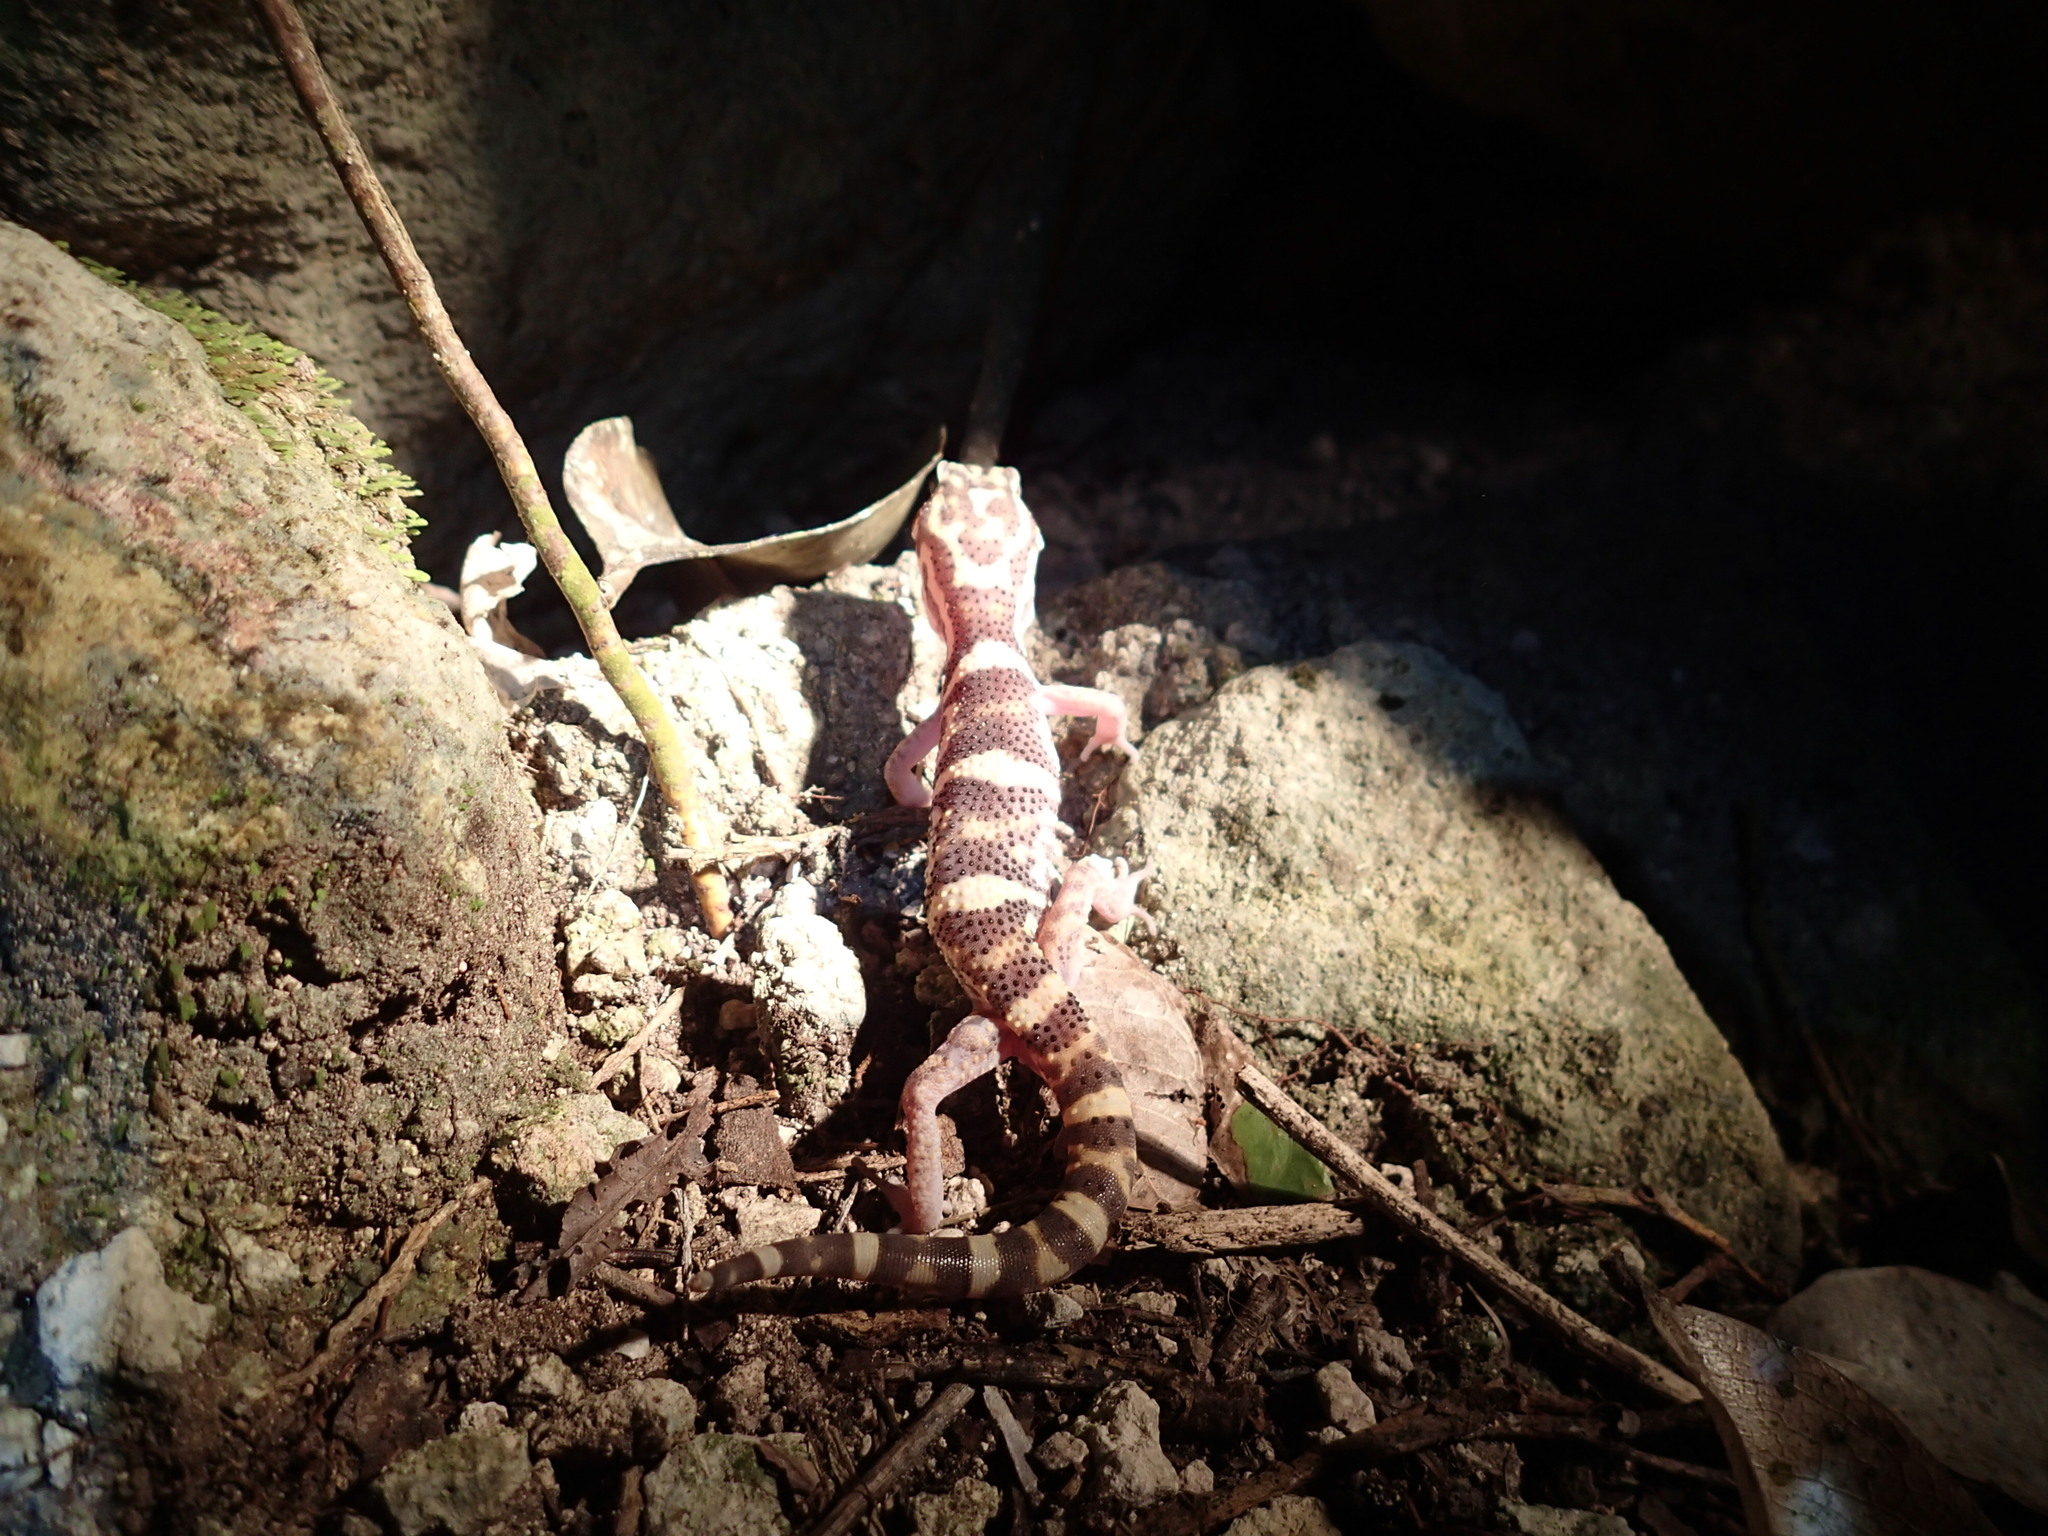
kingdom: Animalia
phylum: Chordata
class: Squamata
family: Eublepharidae
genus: Coleonyx
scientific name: Coleonyx elegans
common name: Yucatan banded gecko
